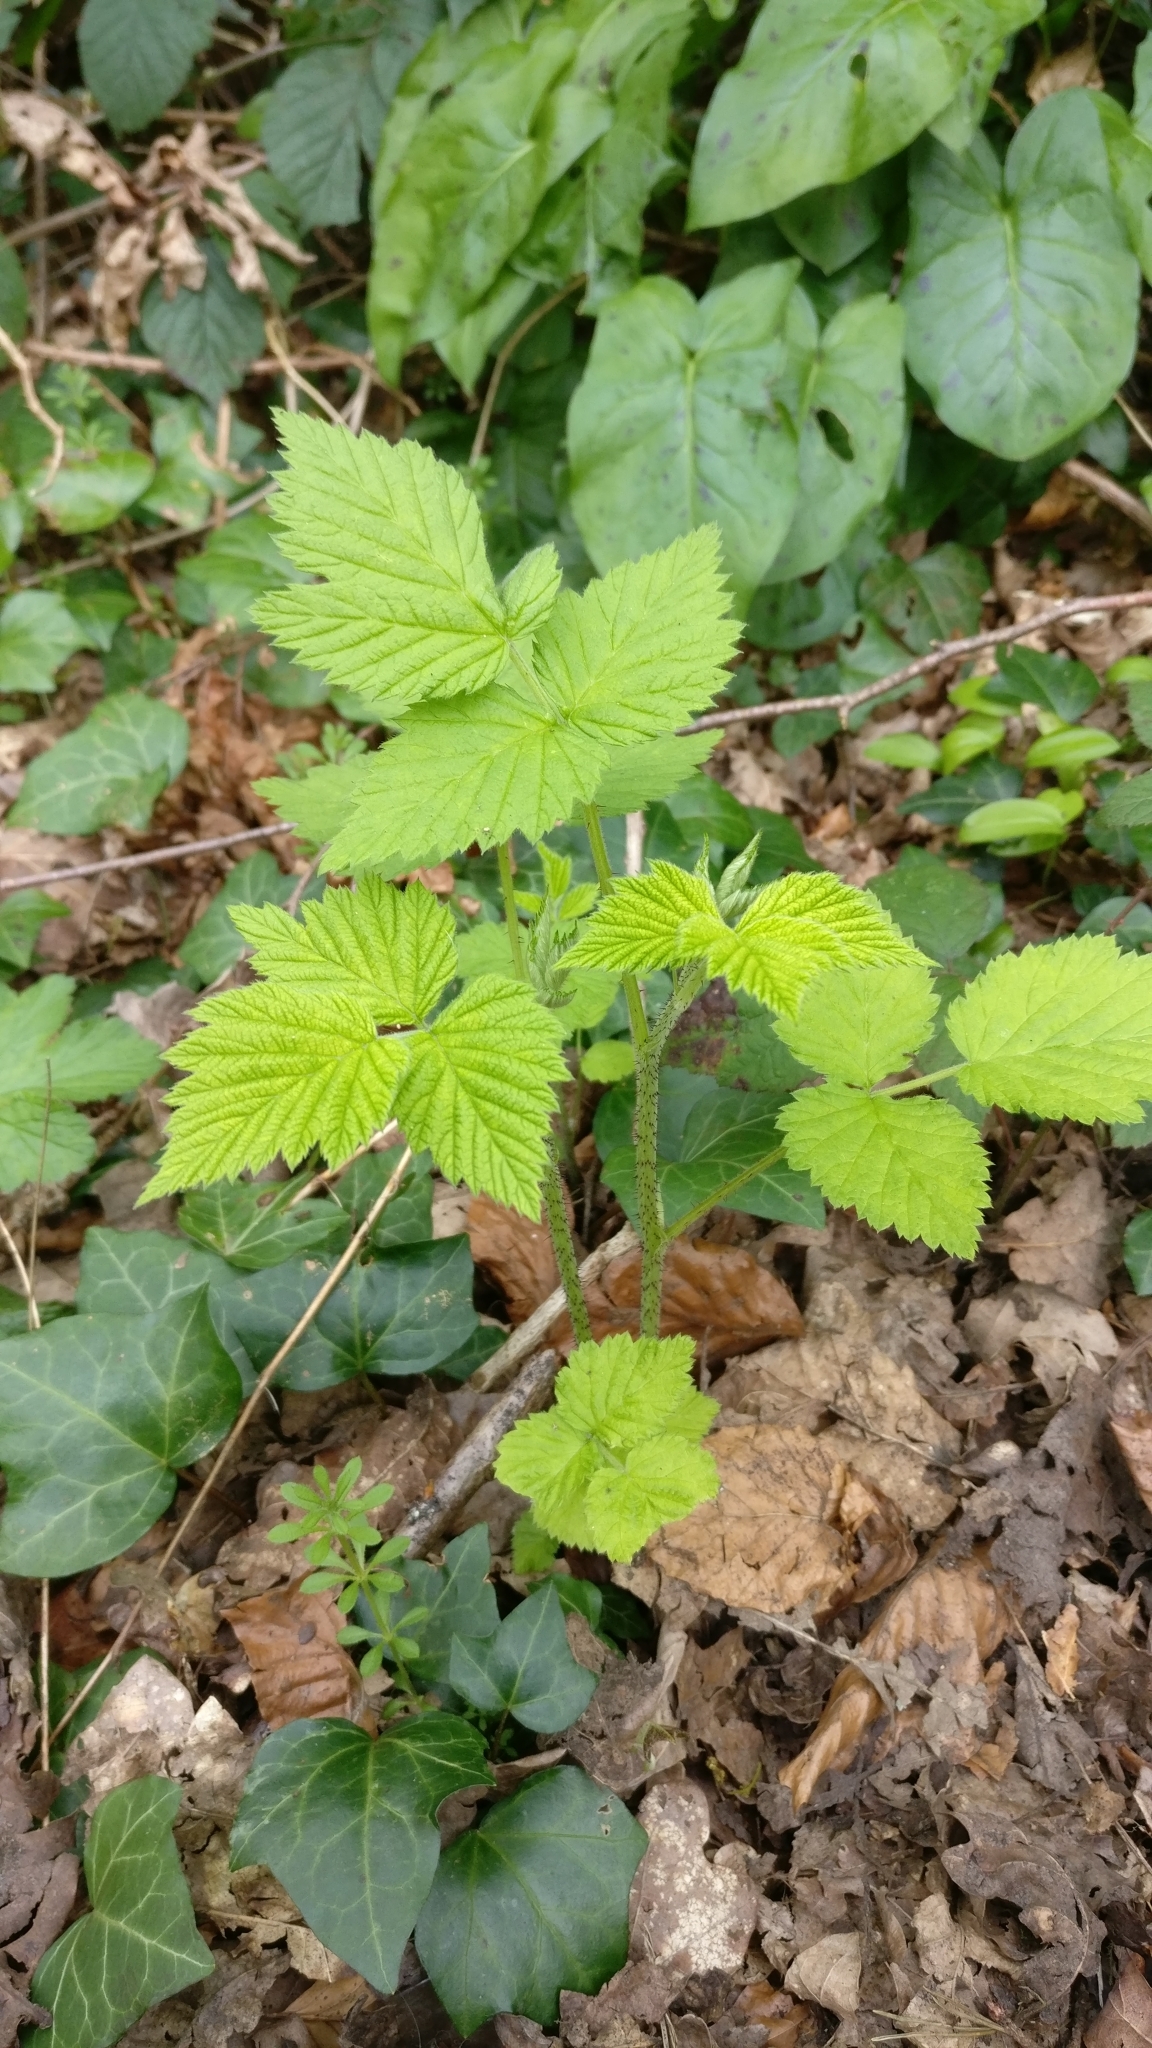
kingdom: Plantae
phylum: Tracheophyta
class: Magnoliopsida
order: Rosales
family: Rosaceae
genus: Rubus
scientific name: Rubus idaeus
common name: Raspberry
